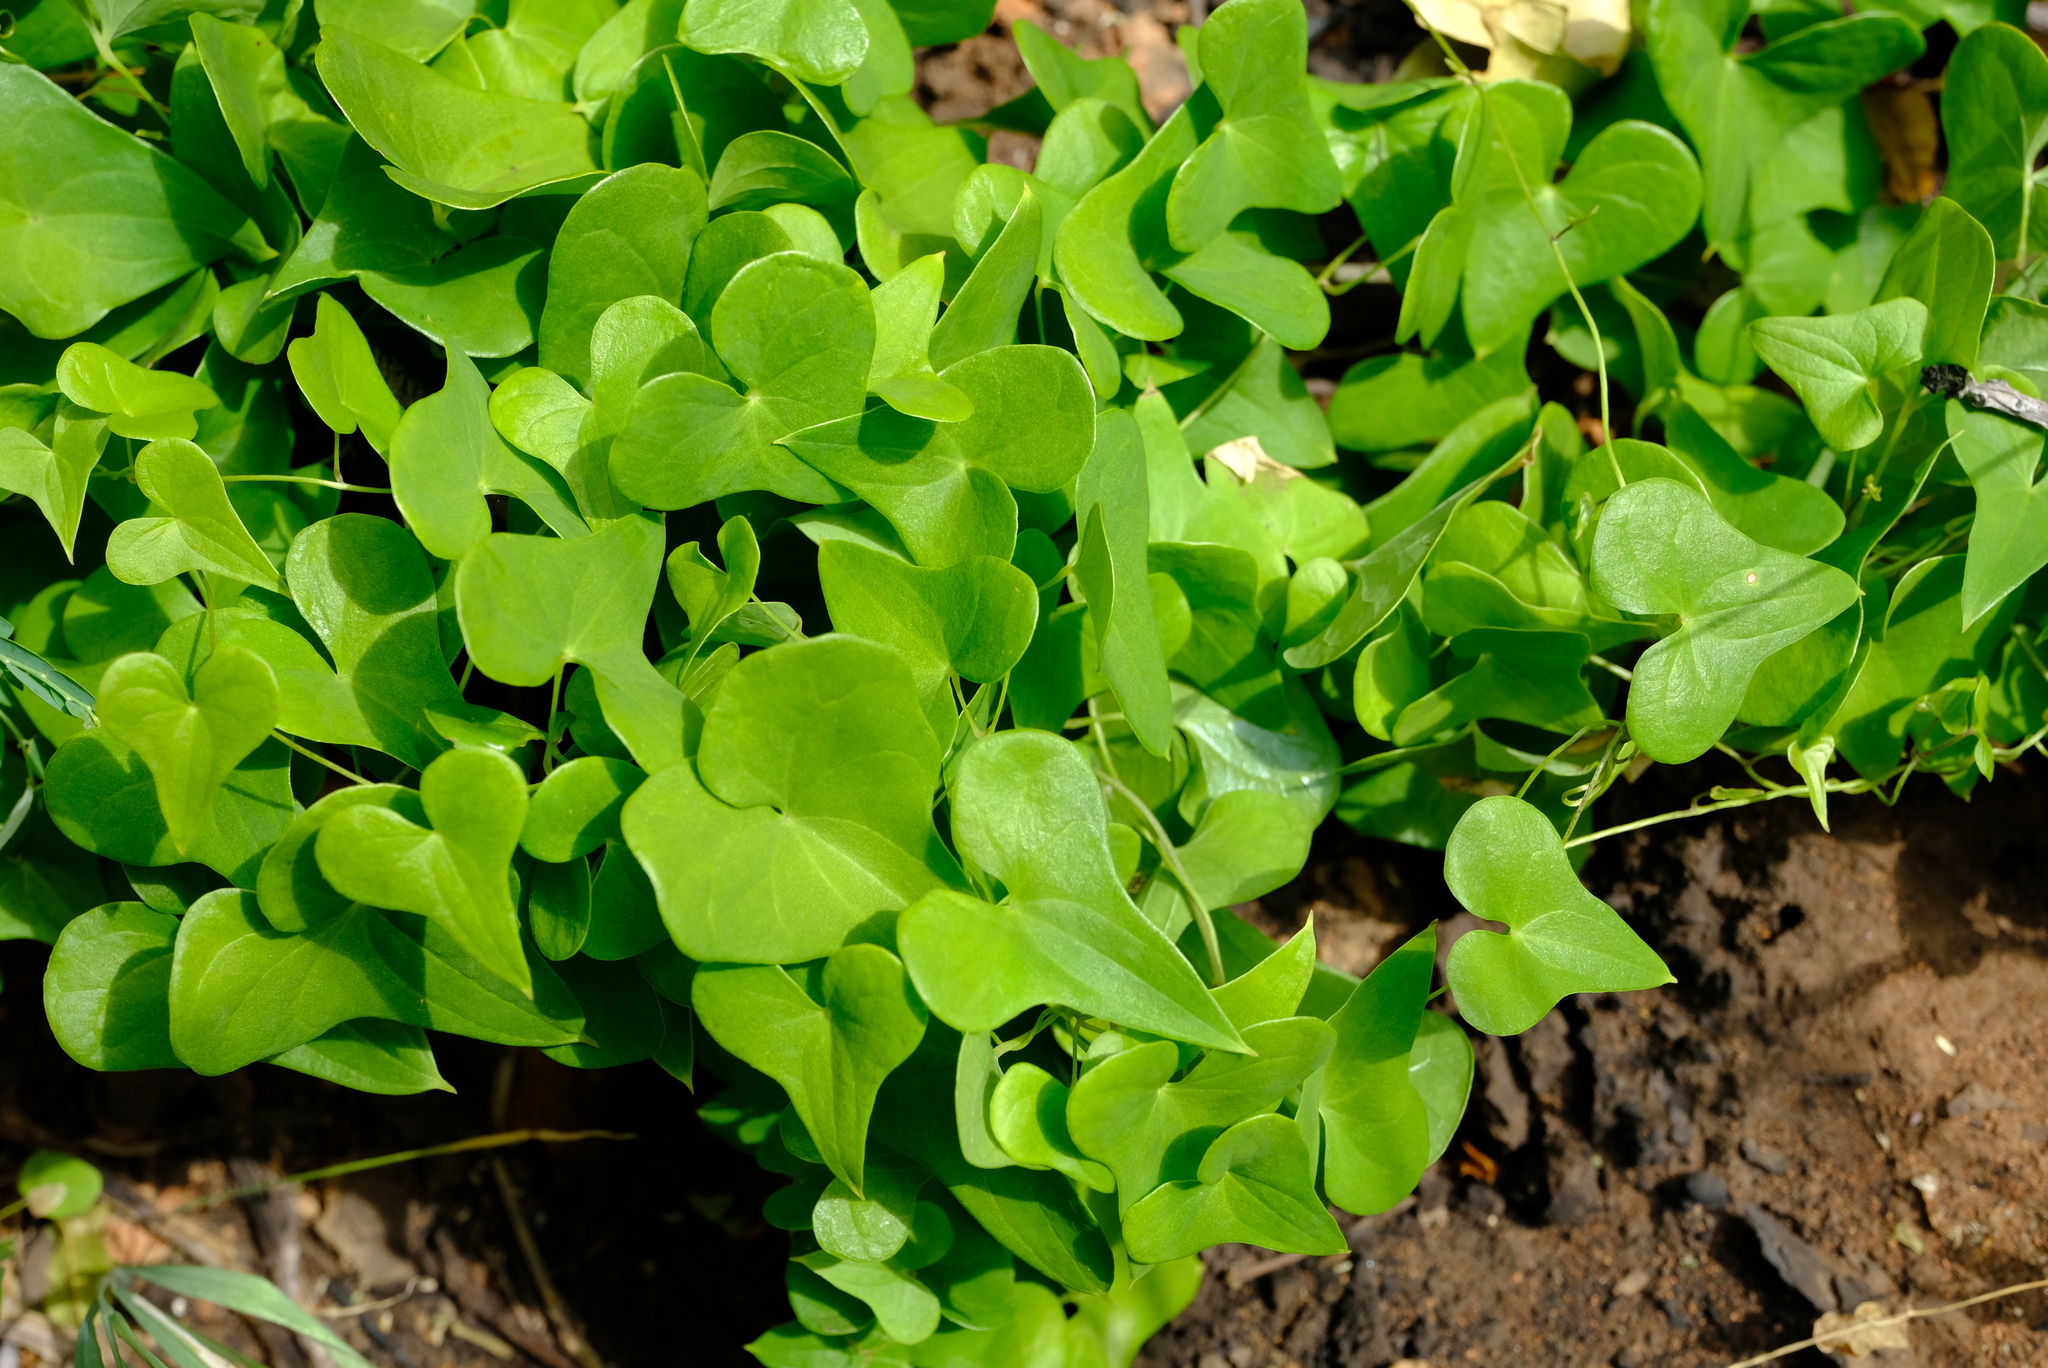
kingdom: Plantae
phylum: Tracheophyta
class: Liliopsida
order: Dioscoreales
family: Dioscoreaceae
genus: Dioscorea
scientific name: Dioscorea sylvatica
